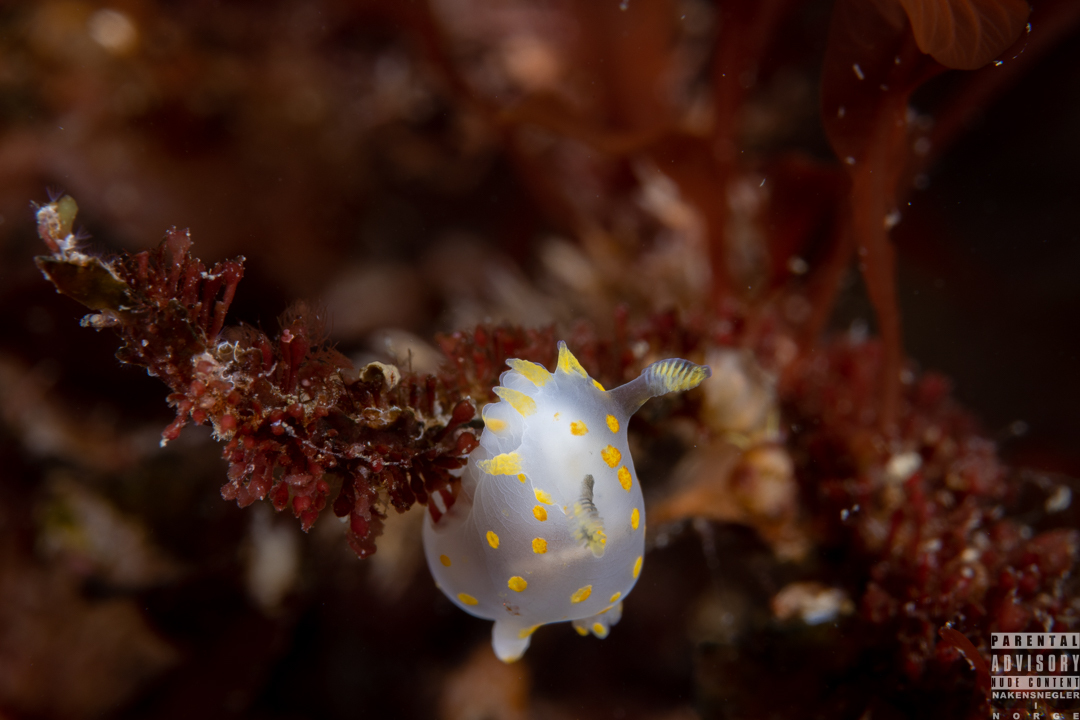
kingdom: Animalia
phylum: Mollusca
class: Gastropoda
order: Nudibranchia
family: Polyceridae
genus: Polycera
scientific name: Polycera quadrilineata
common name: Four-striped polycera
